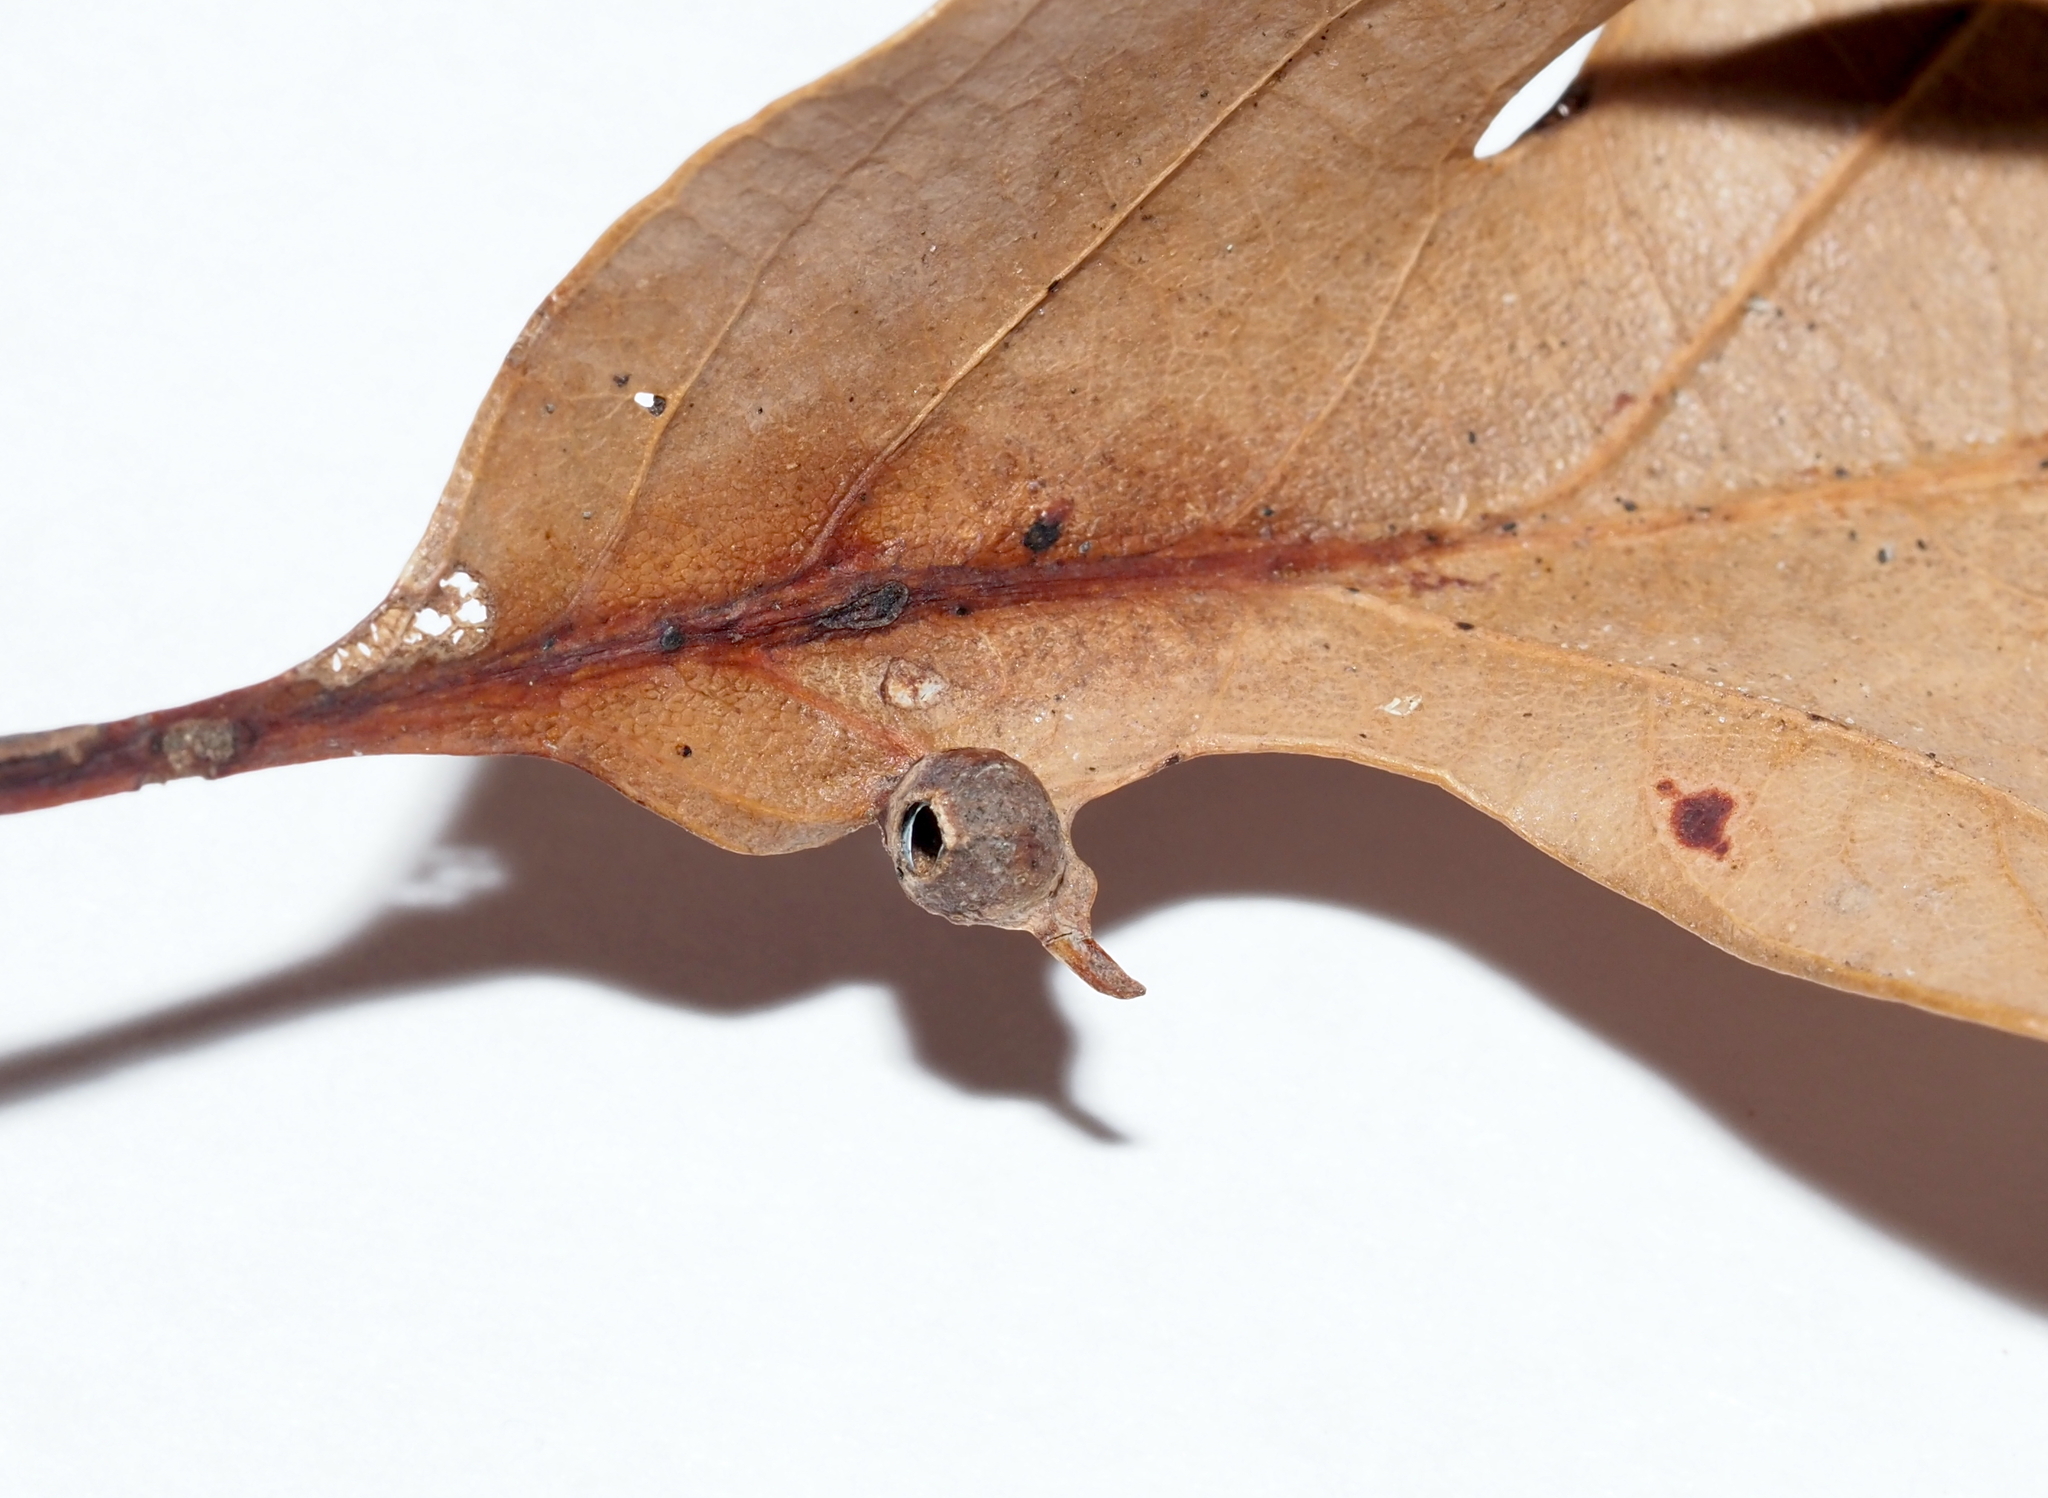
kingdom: Animalia
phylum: Arthropoda
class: Insecta
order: Hymenoptera
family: Cynipidae
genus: Andricus
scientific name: Andricus
